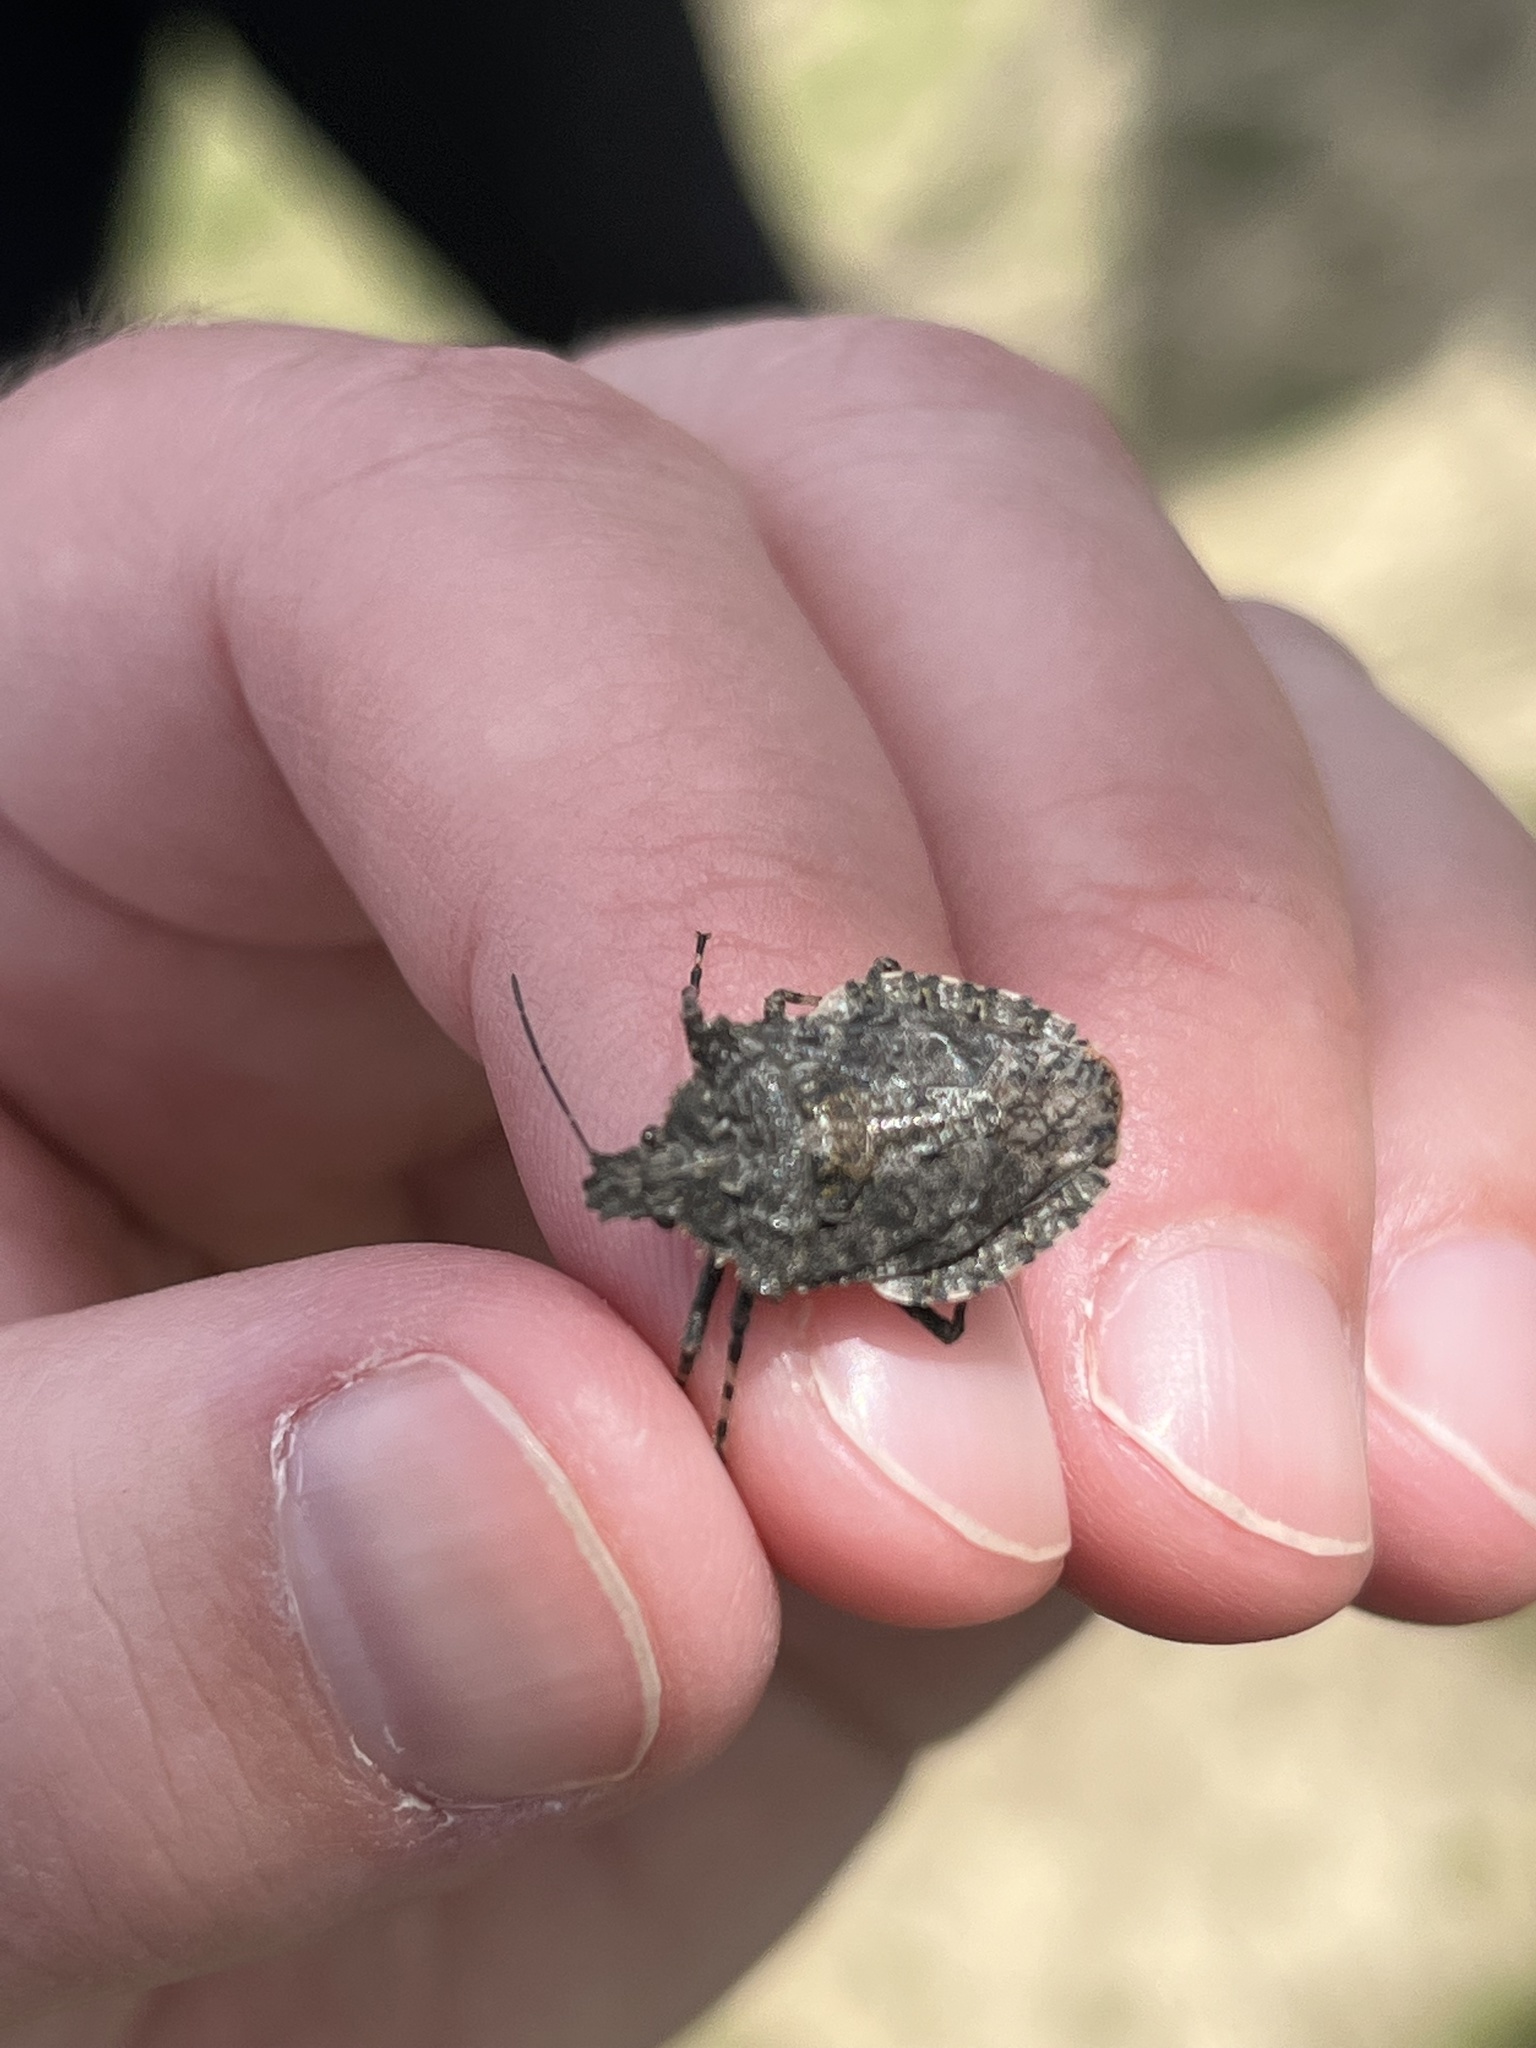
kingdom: Animalia
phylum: Arthropoda
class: Insecta
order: Hemiptera
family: Pentatomidae
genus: Brochymena
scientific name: Brochymena arborea
